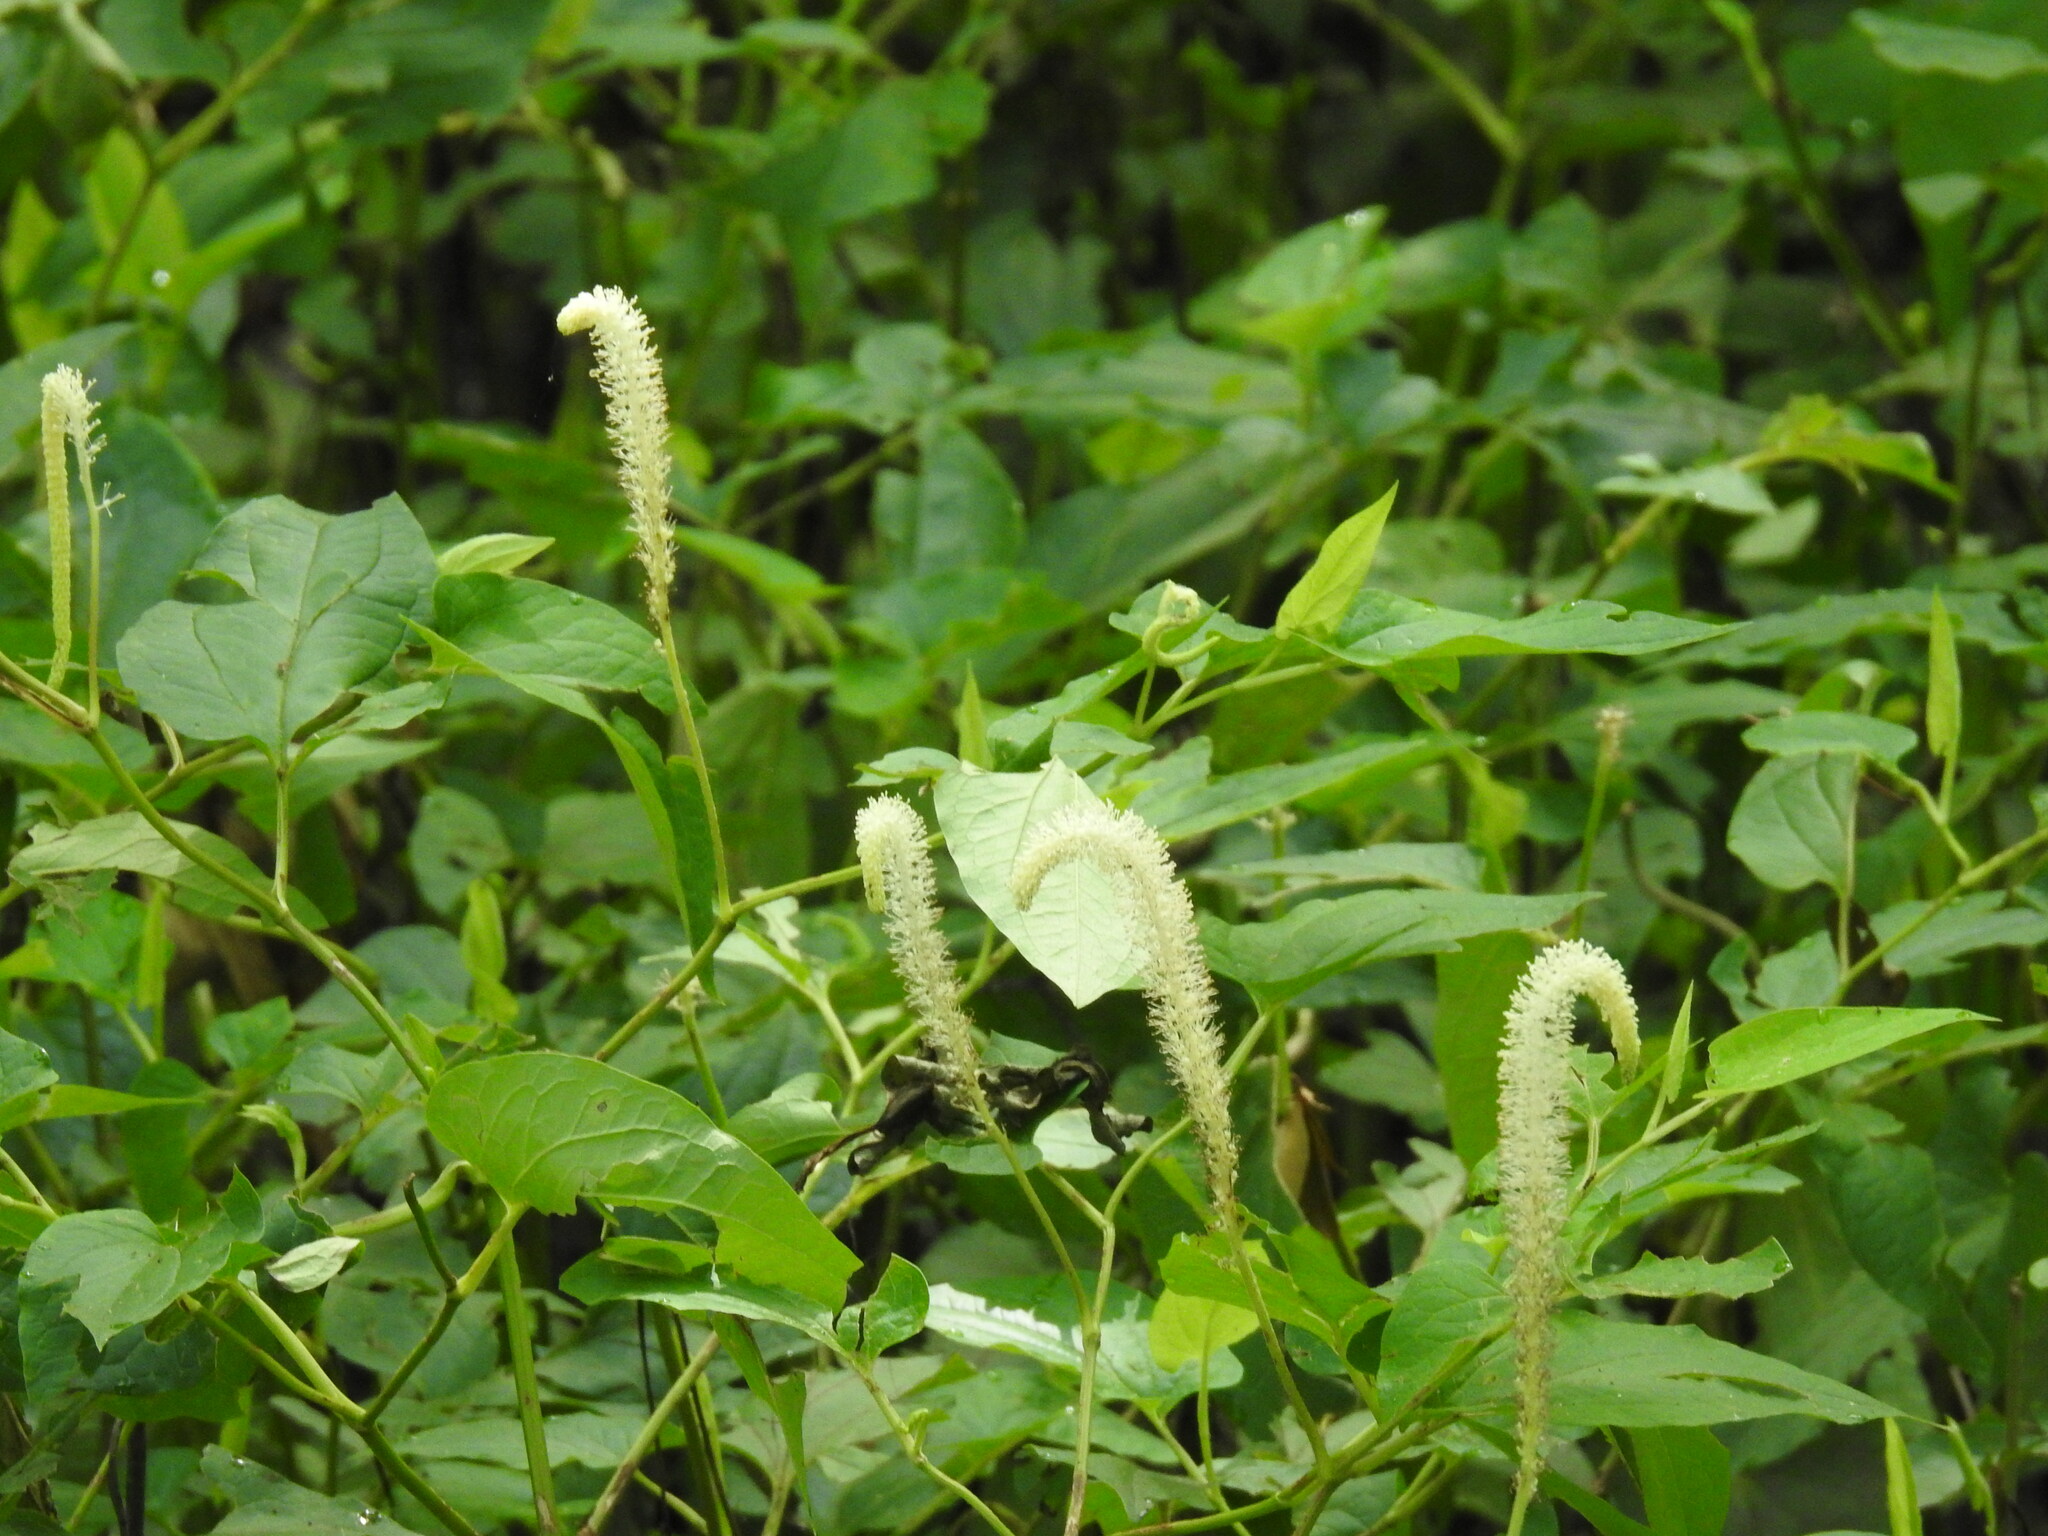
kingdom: Plantae
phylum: Tracheophyta
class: Magnoliopsida
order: Piperales
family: Saururaceae
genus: Saururus
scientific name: Saururus cernuus
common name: Lizard's-tail
